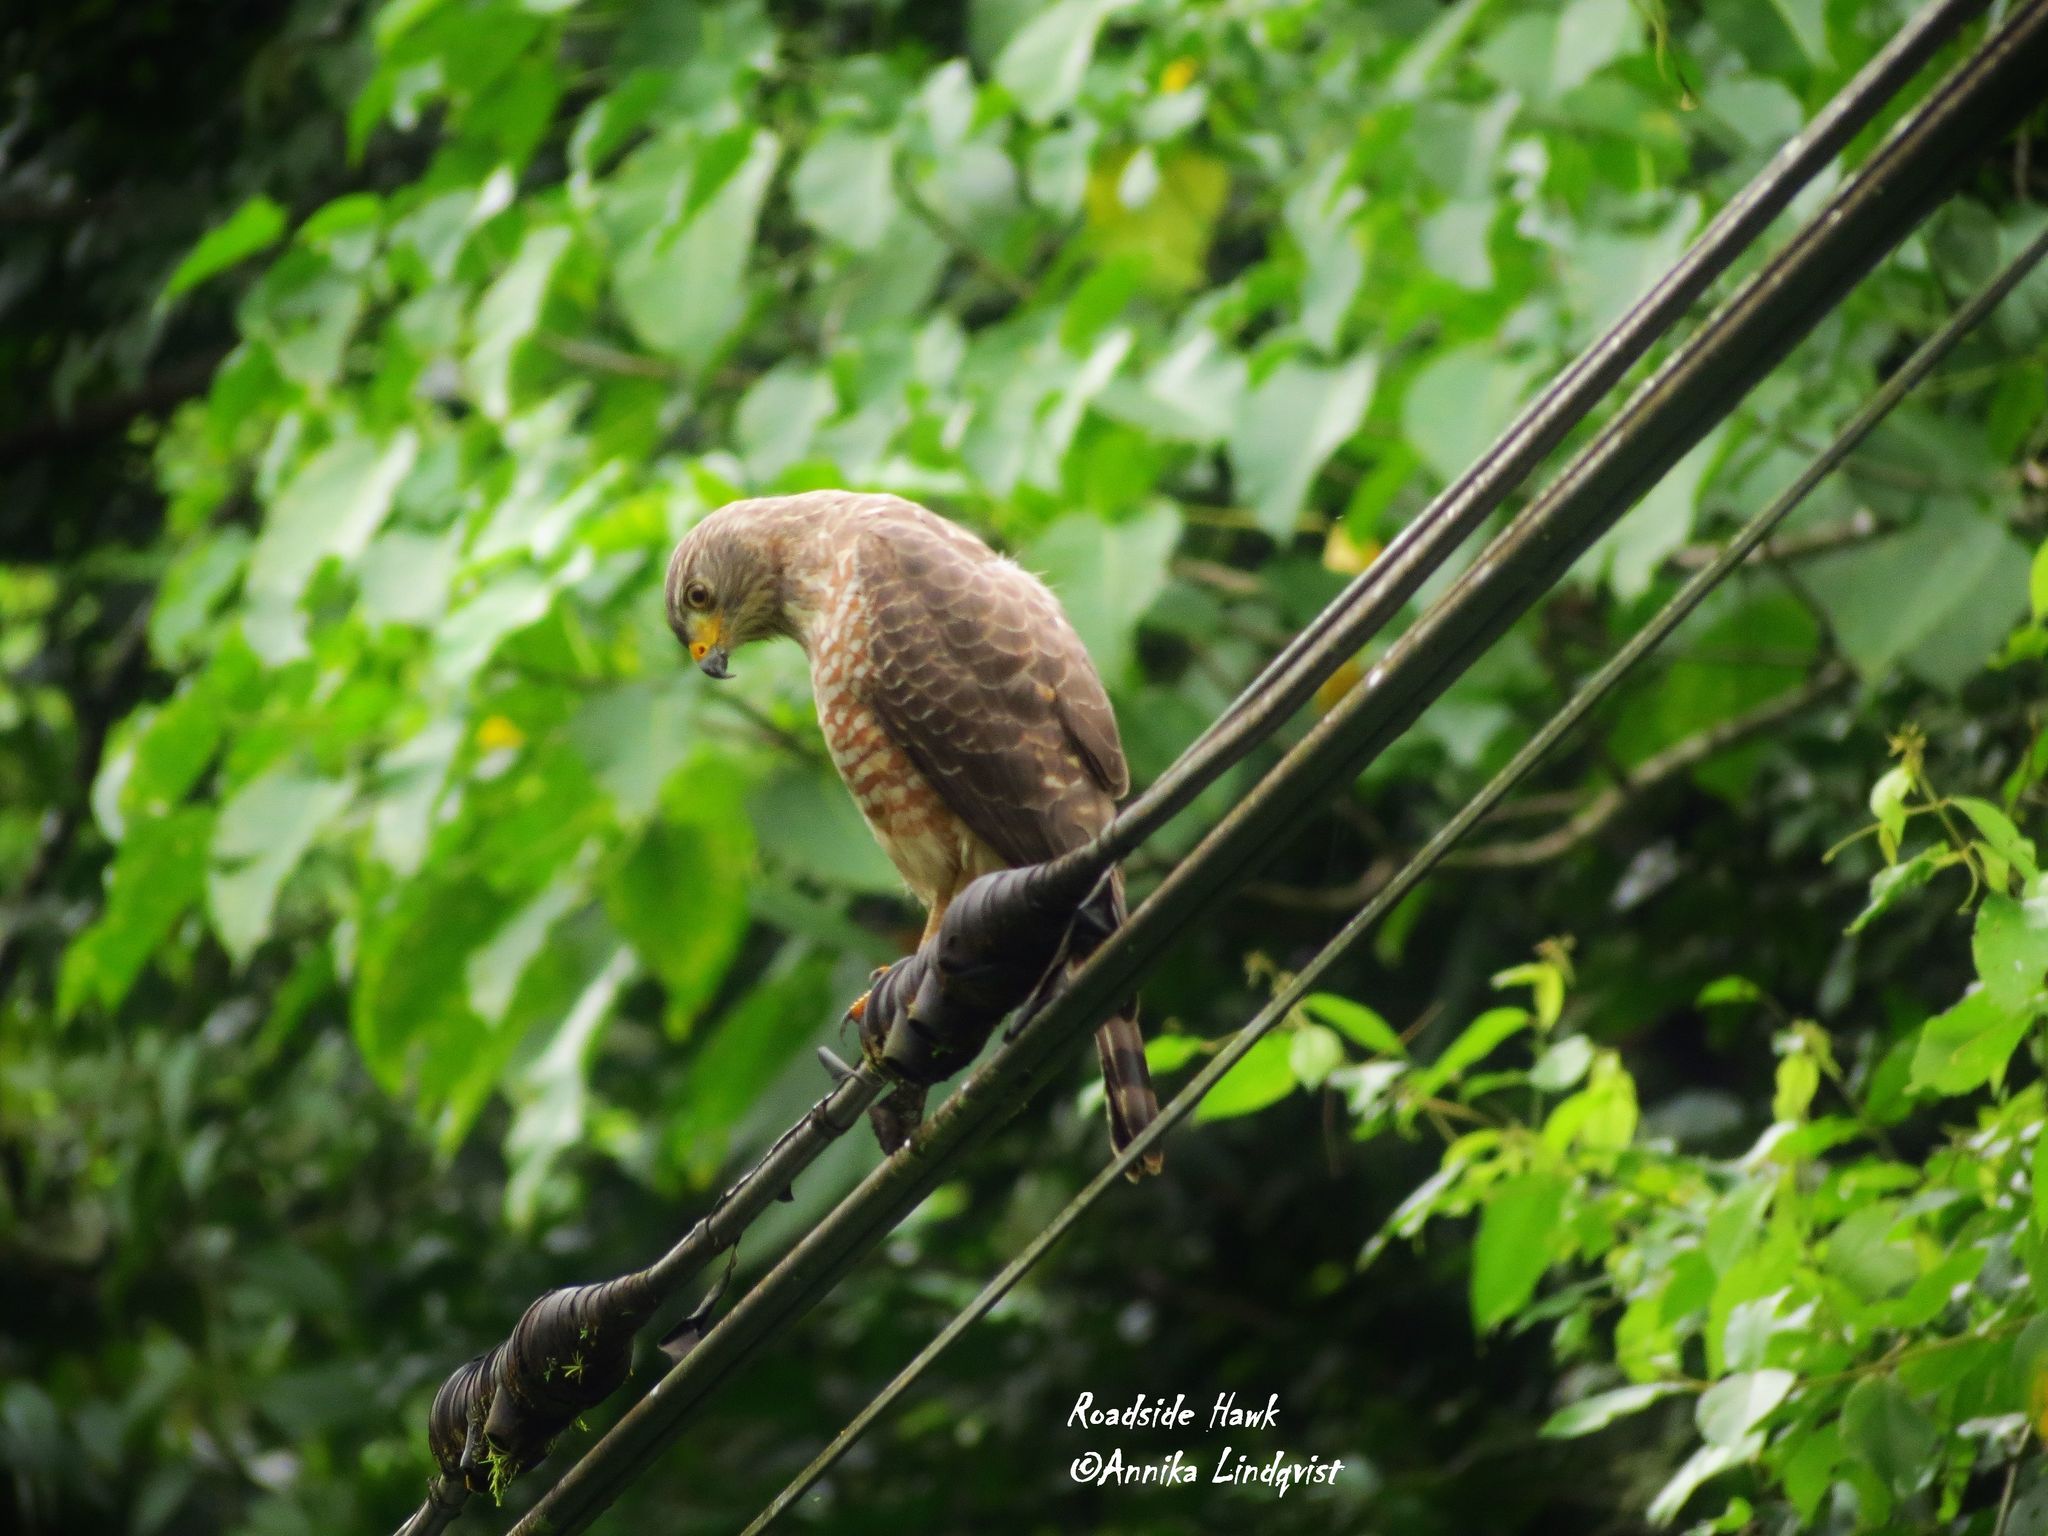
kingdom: Animalia
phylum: Chordata
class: Aves
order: Accipitriformes
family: Accipitridae
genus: Rupornis
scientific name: Rupornis magnirostris
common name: Roadside hawk
